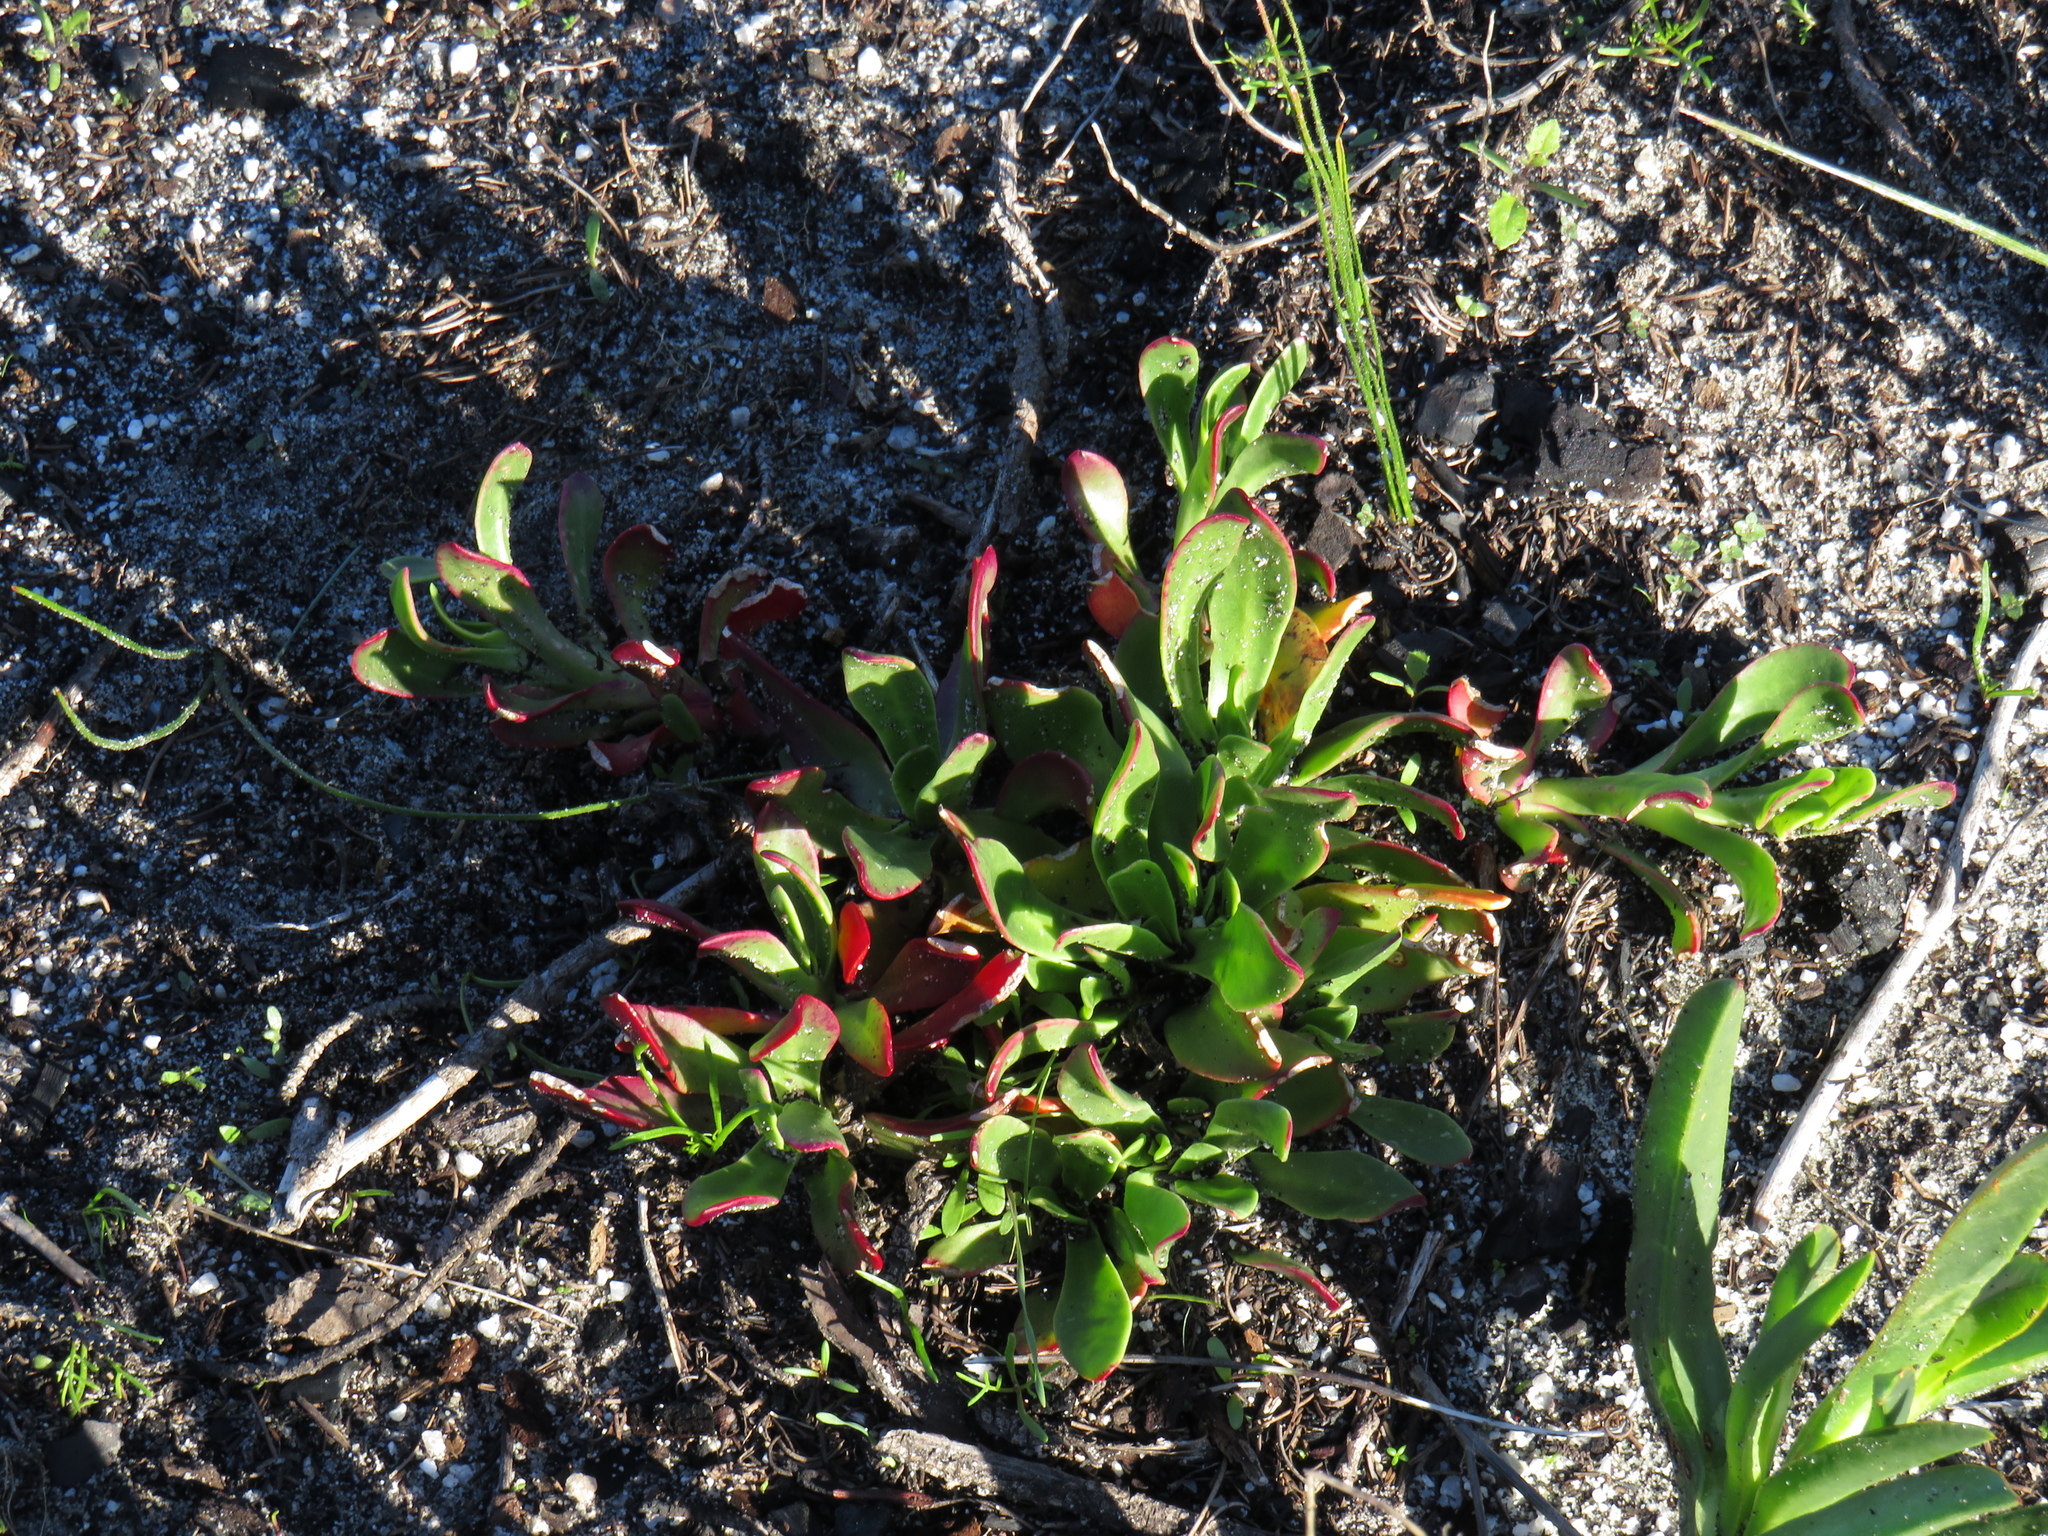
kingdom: Plantae
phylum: Tracheophyta
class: Magnoliopsida
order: Caryophyllales
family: Aizoaceae
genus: Skiatophytum
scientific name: Skiatophytum tripolium
